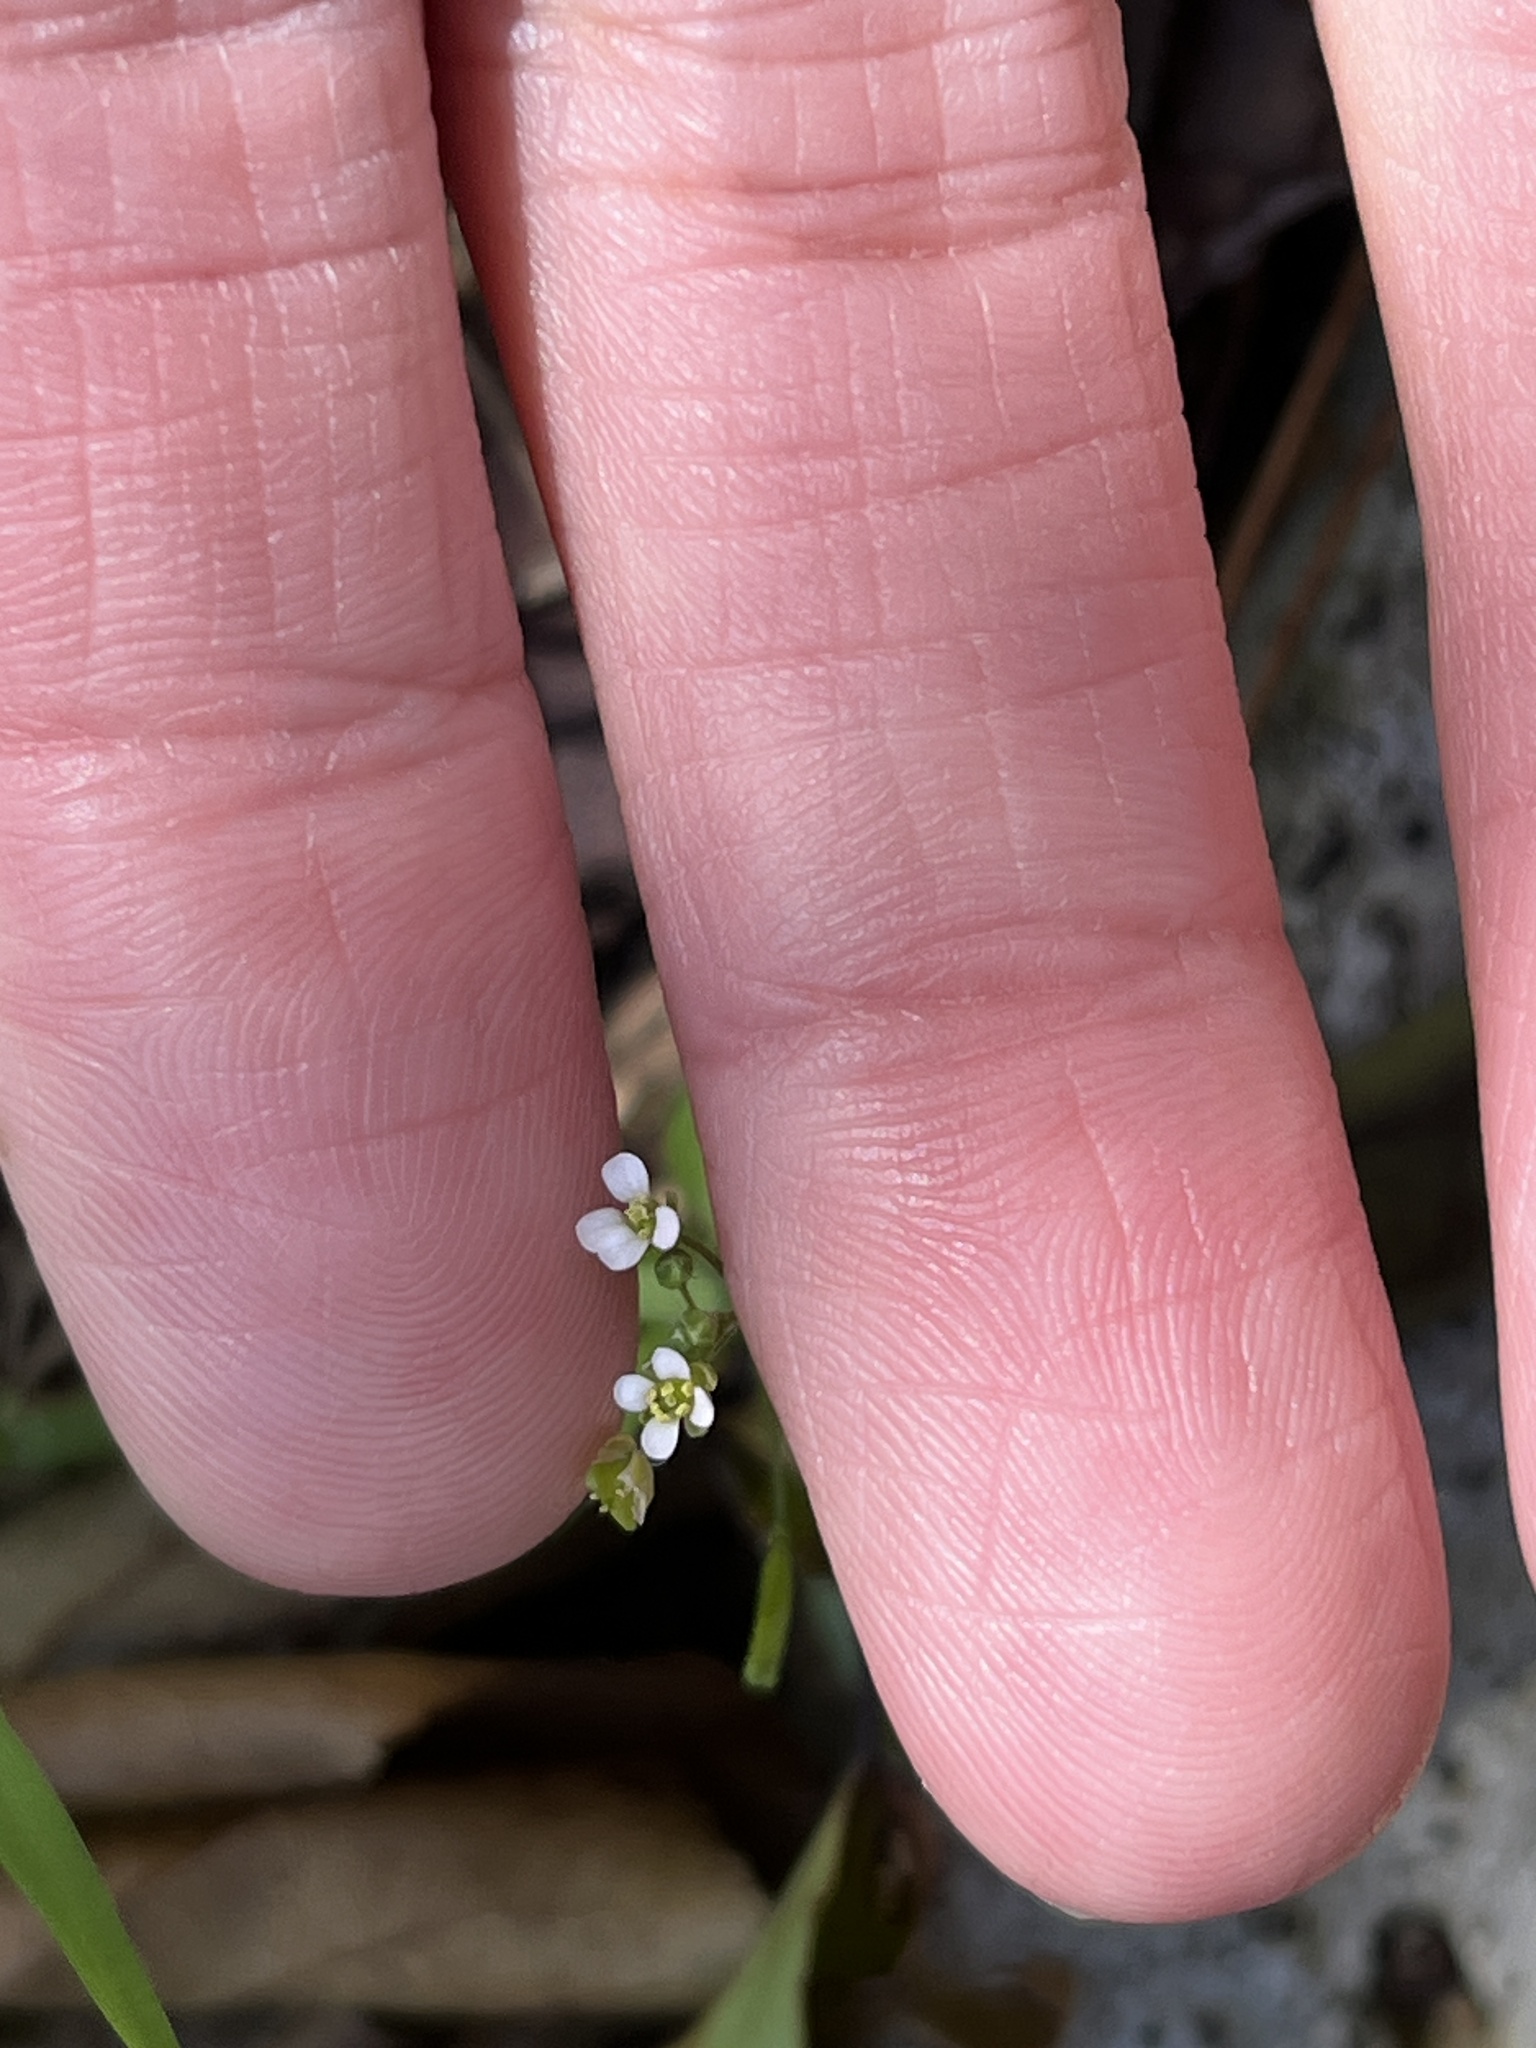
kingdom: Plantae
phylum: Tracheophyta
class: Magnoliopsida
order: Brassicales
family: Brassicaceae
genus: Capsella
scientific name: Capsella bursa-pastoris
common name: Shepherd's purse
